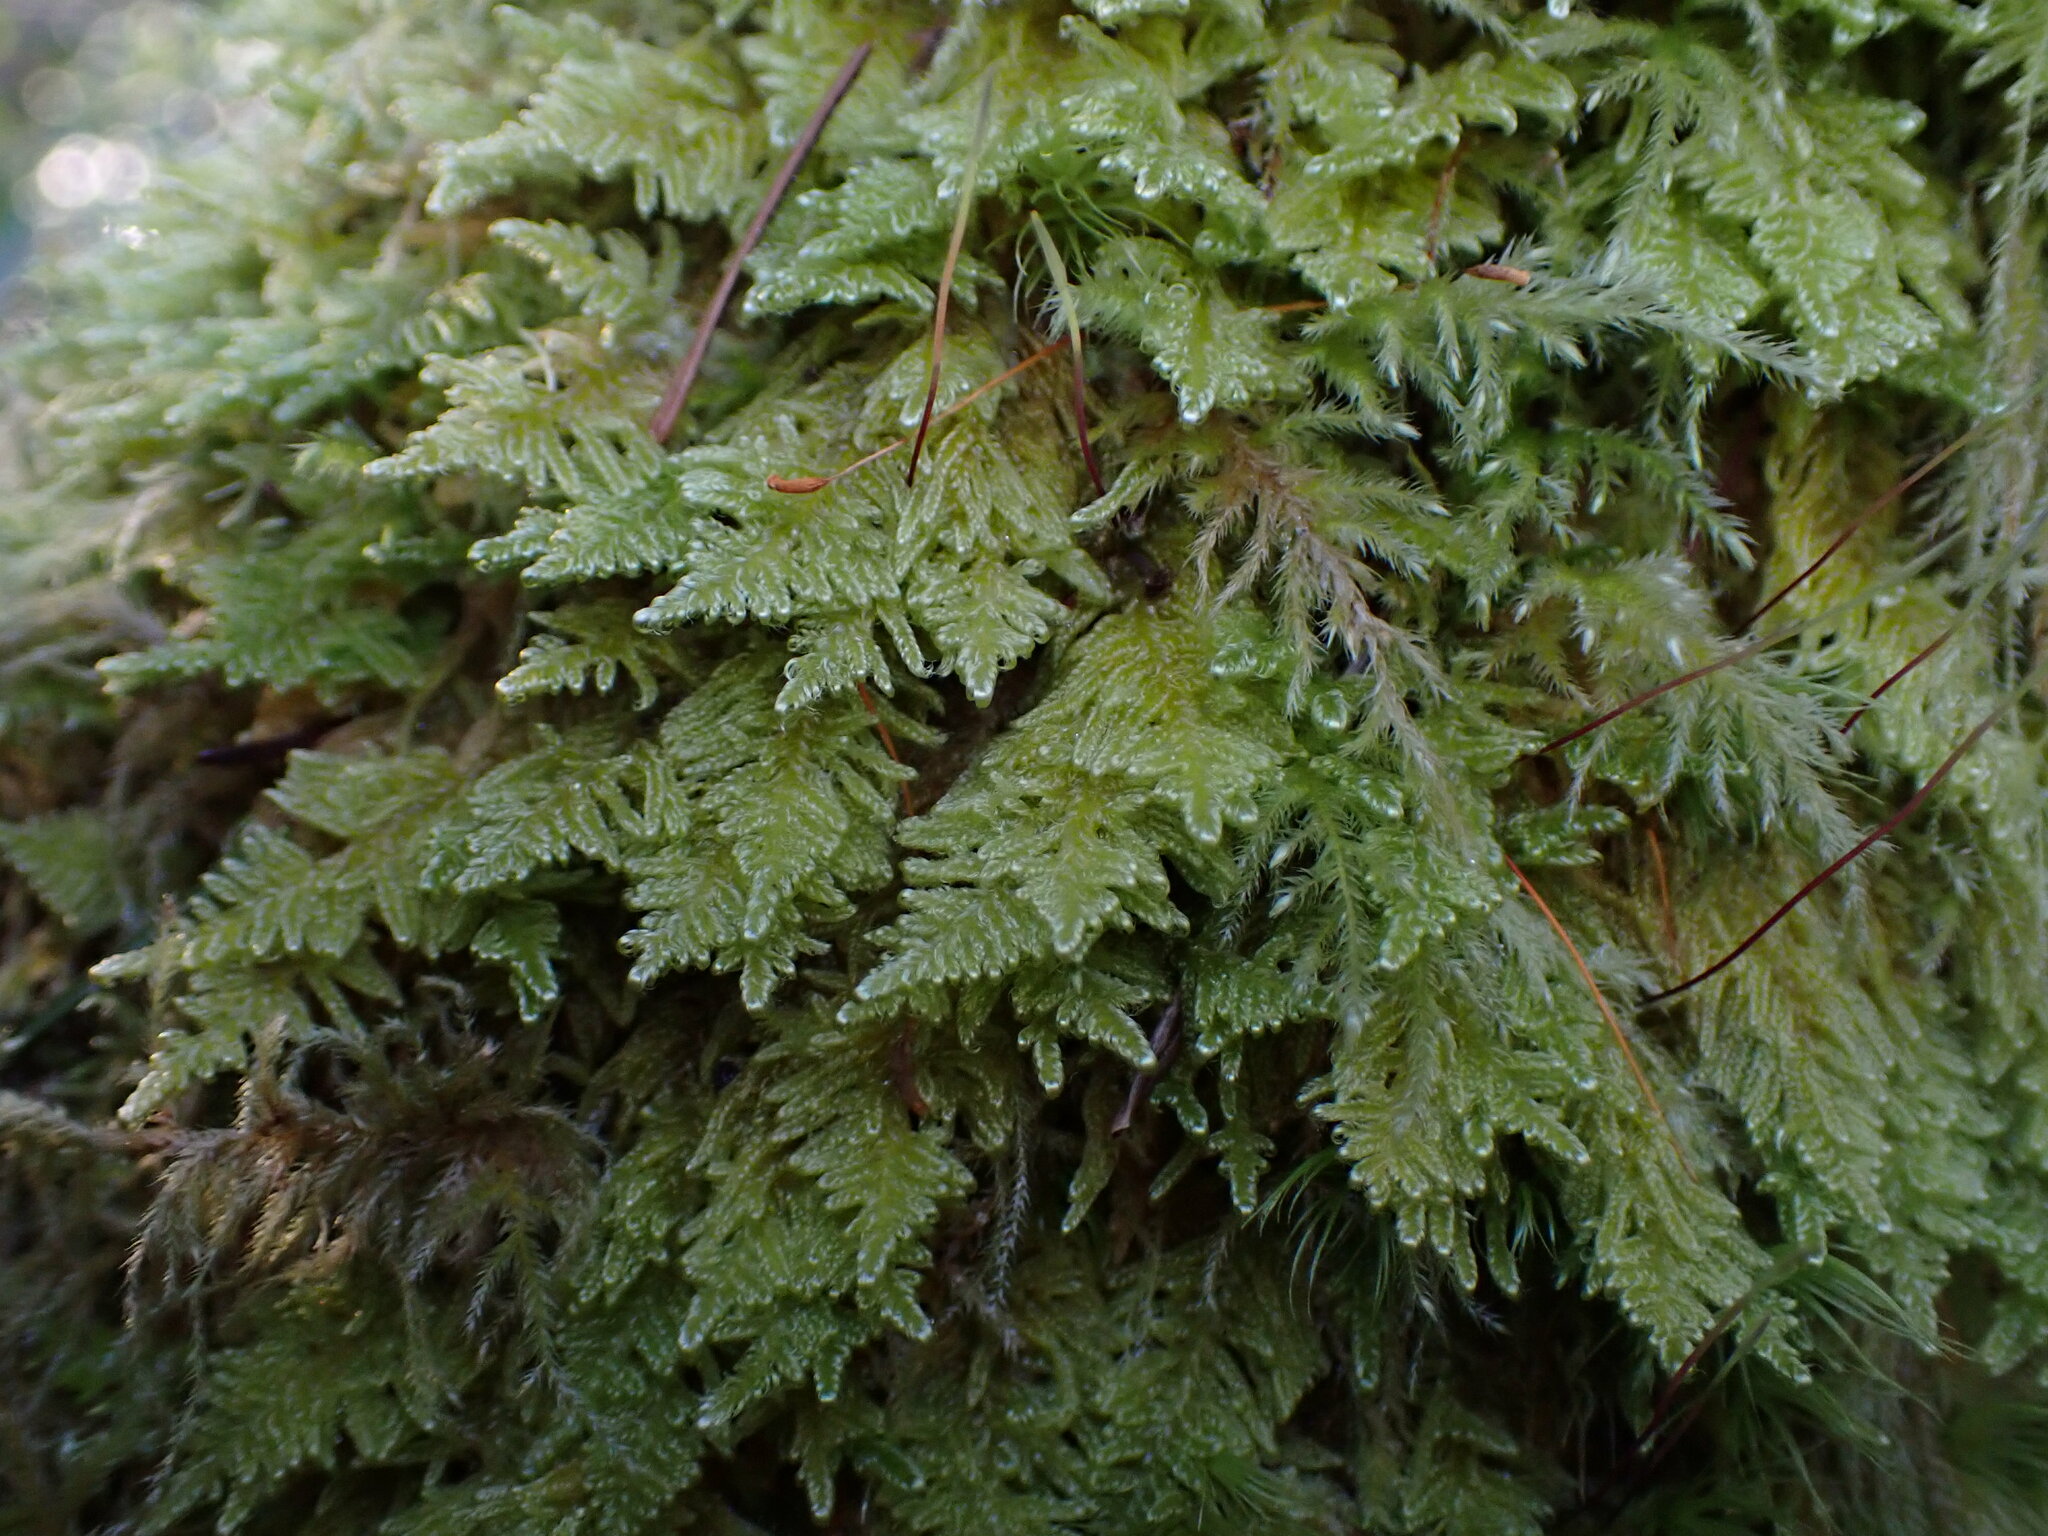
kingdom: Plantae
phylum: Bryophyta
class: Bryopsida
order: Hypnales
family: Stereodontaceae
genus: Stereodon
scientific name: Stereodon subimponens
